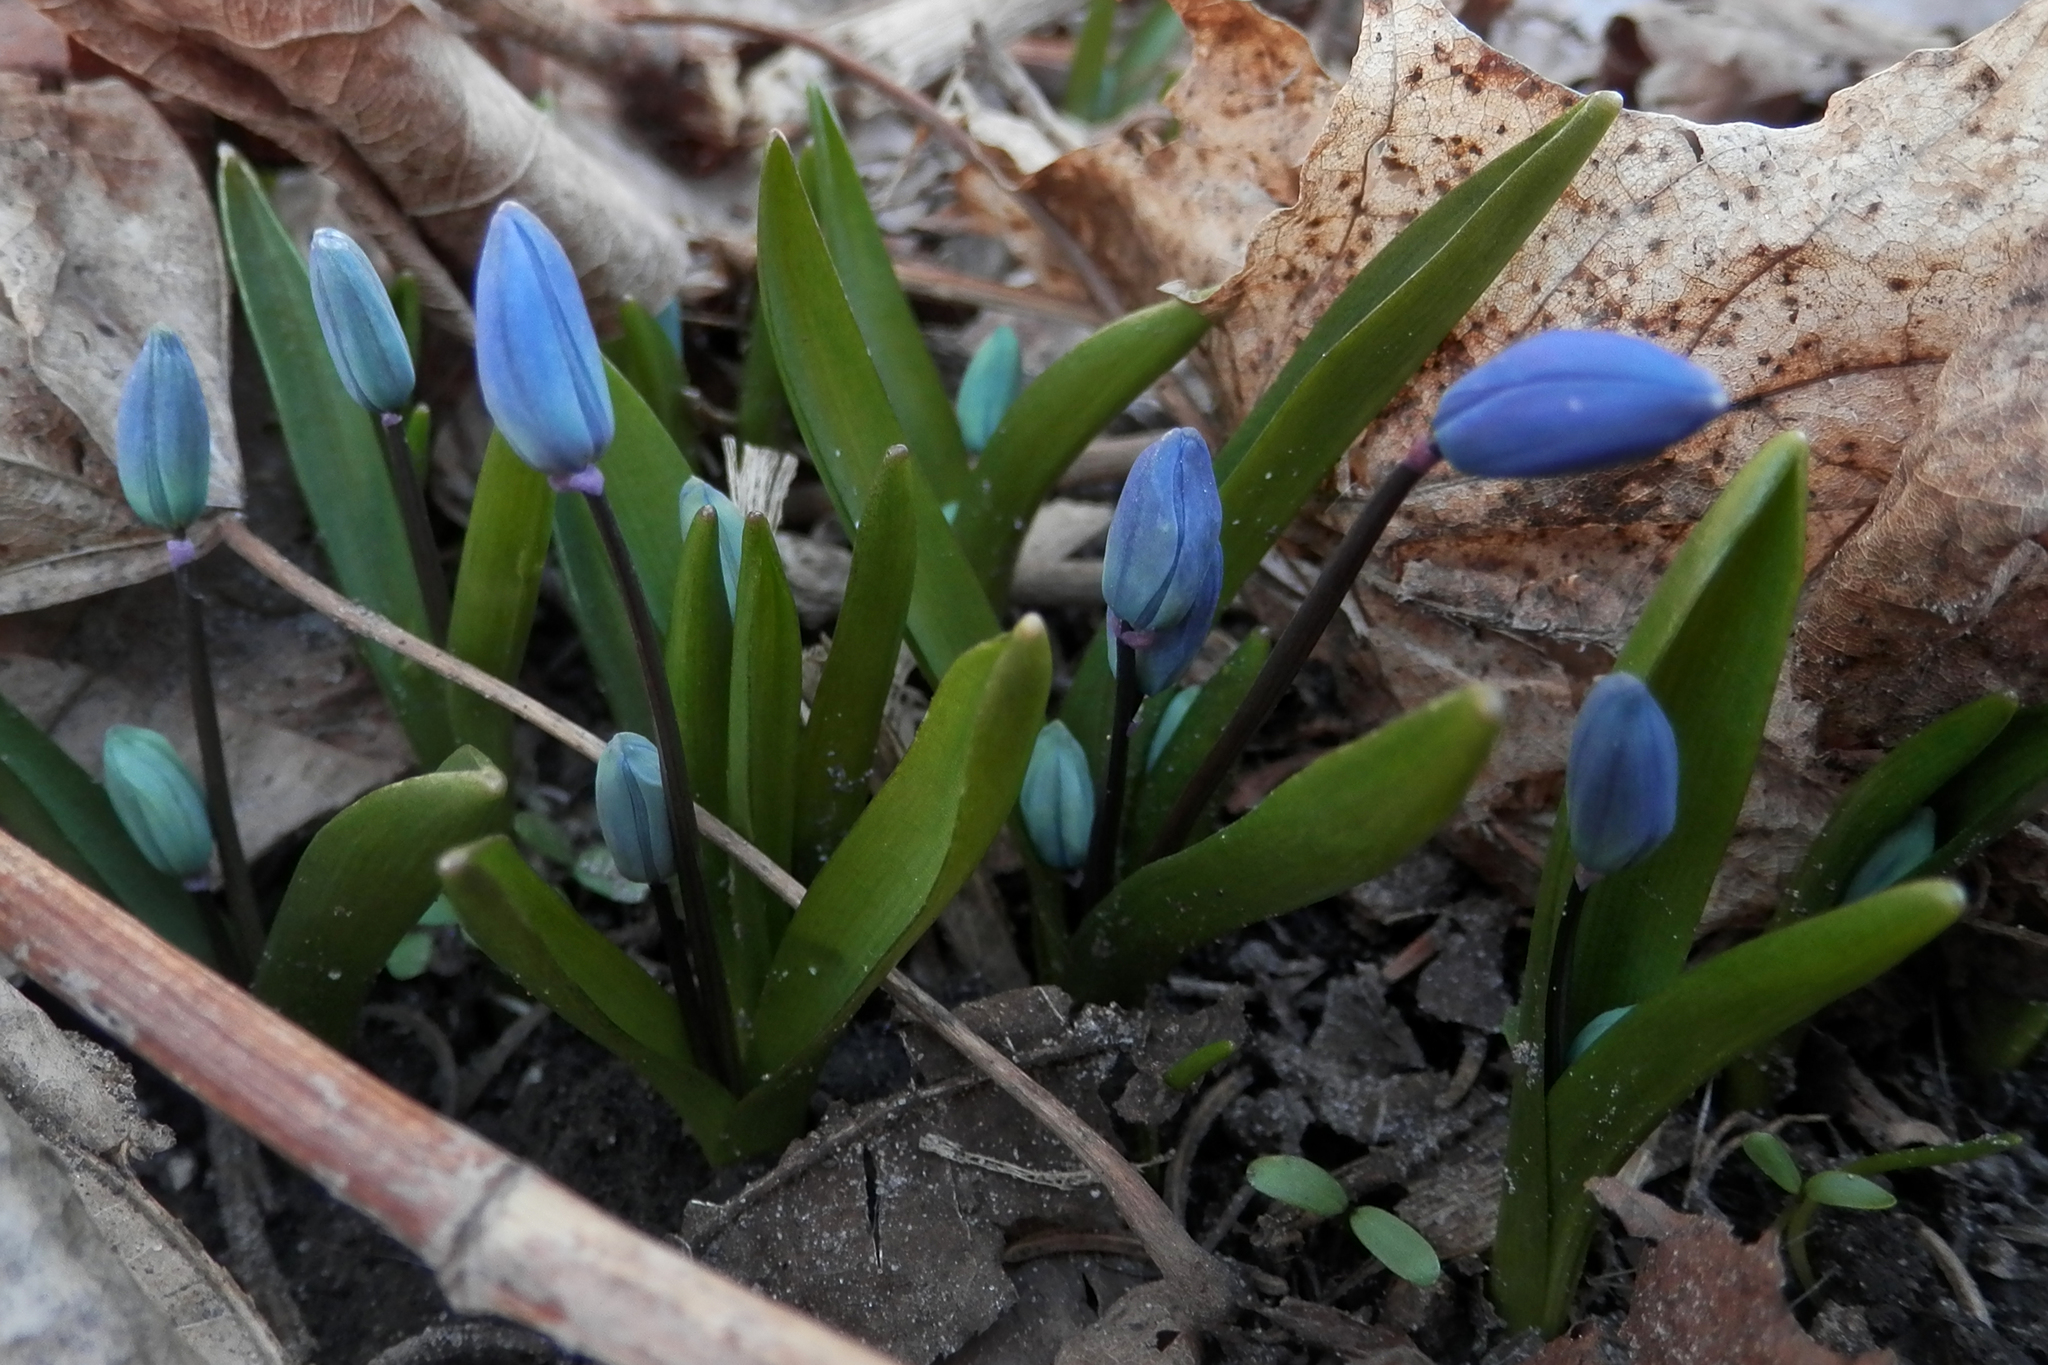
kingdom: Plantae
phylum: Tracheophyta
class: Liliopsida
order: Asparagales
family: Asparagaceae
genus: Scilla
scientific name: Scilla siberica
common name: Siberian squill
